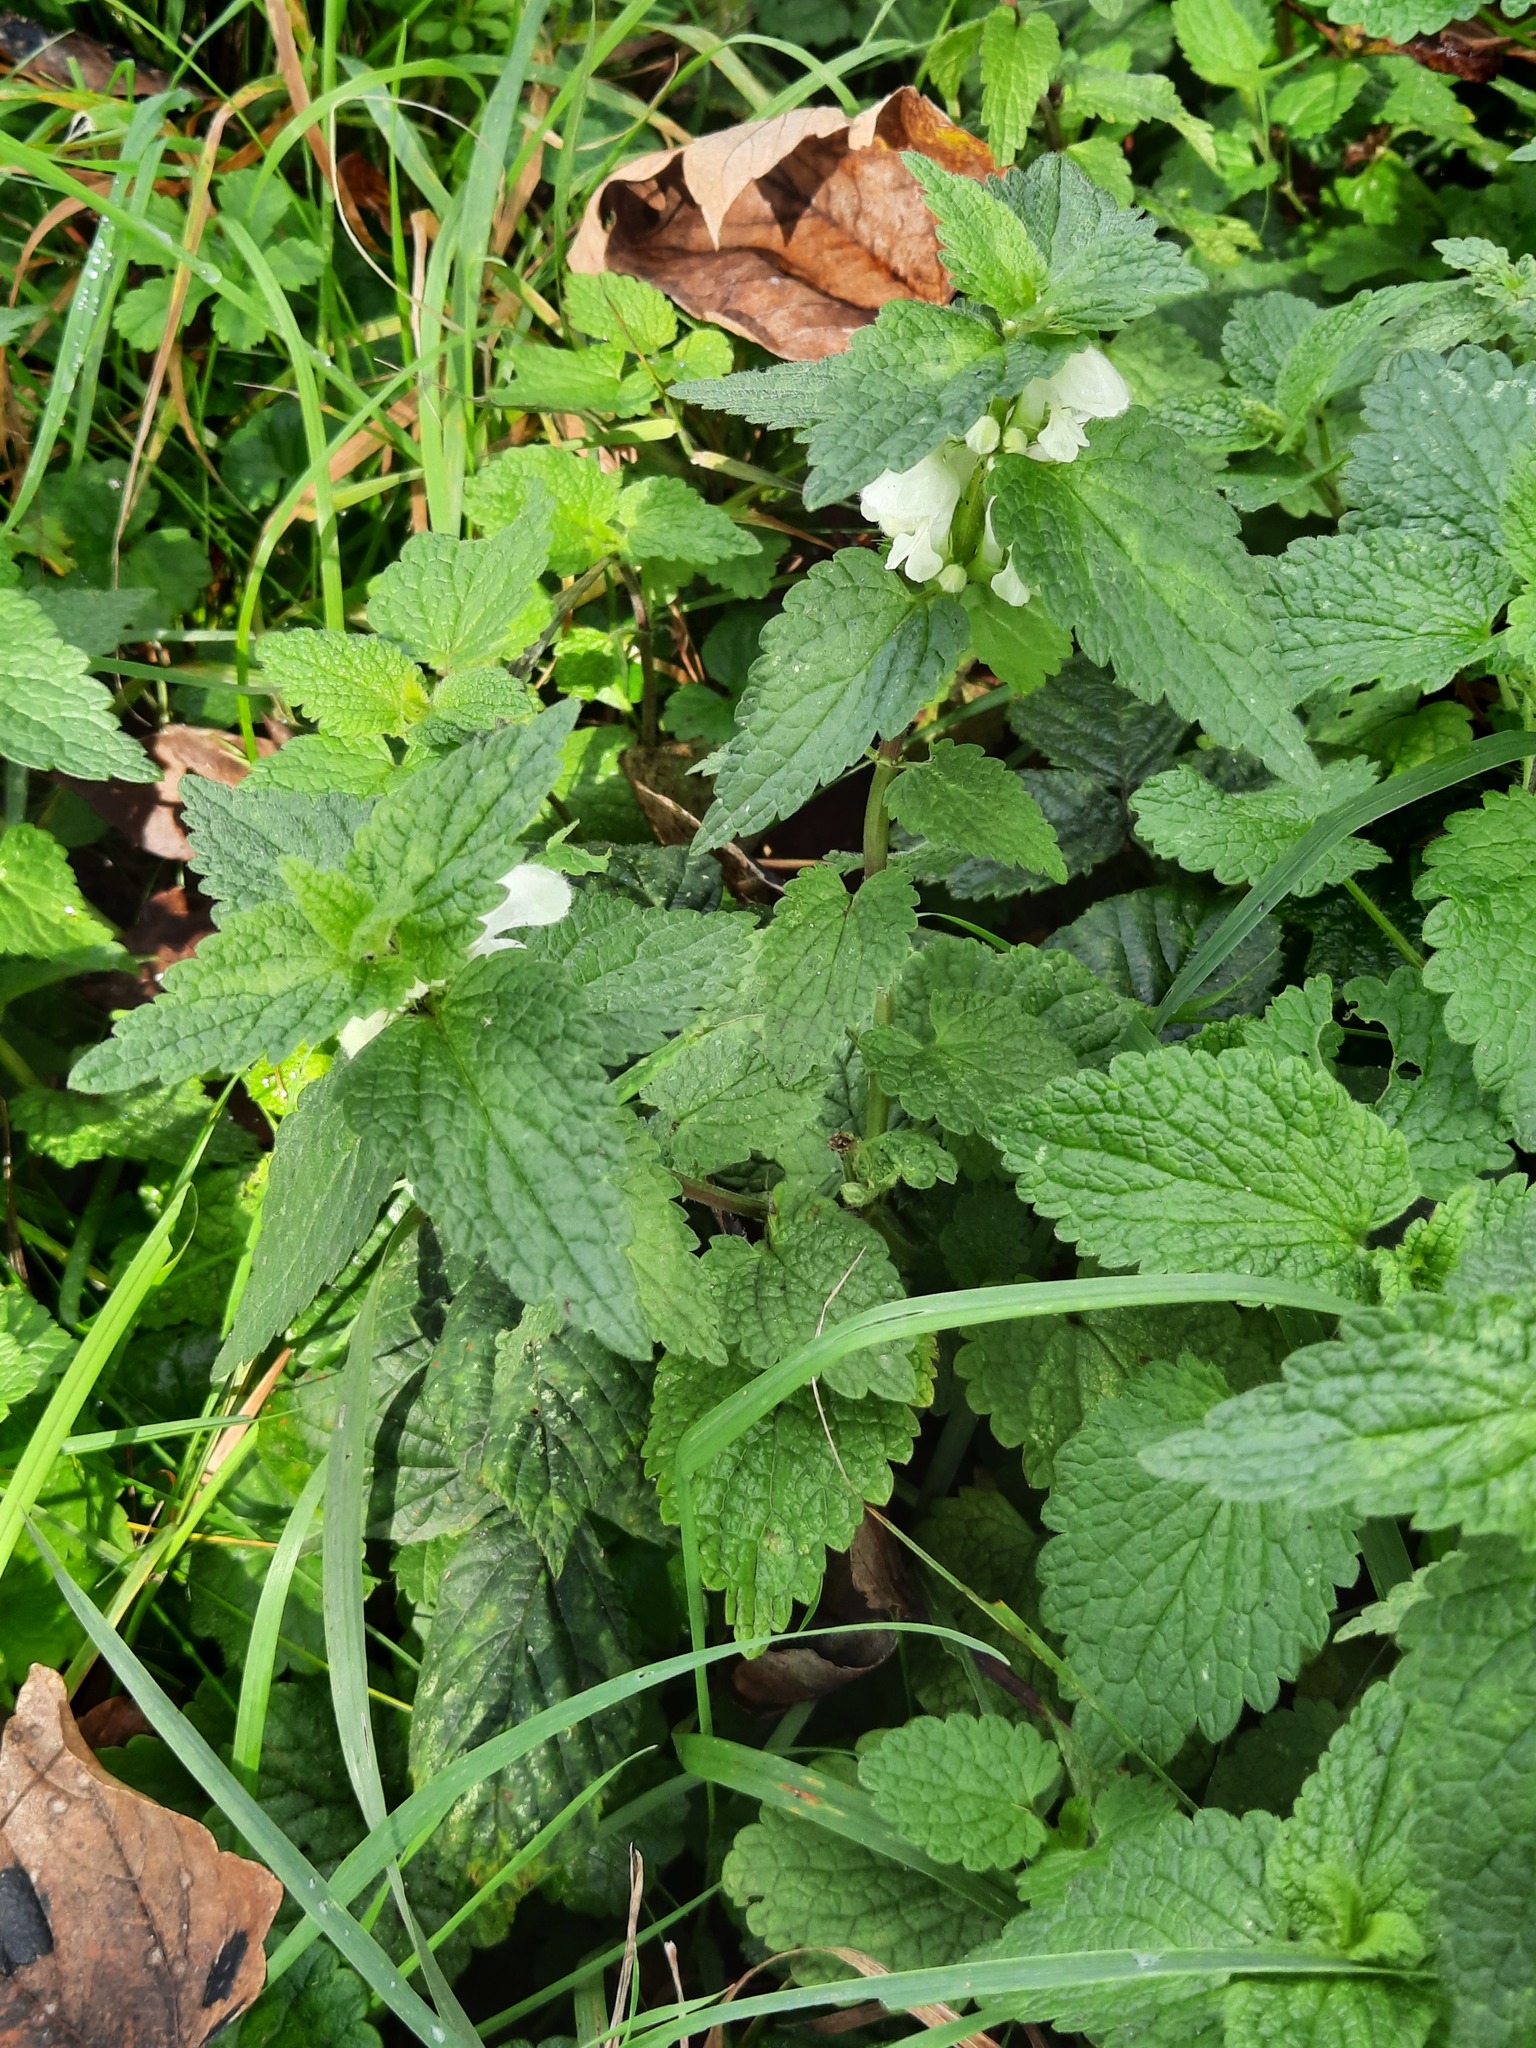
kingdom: Plantae
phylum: Tracheophyta
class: Magnoliopsida
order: Lamiales
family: Lamiaceae
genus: Lamium
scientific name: Lamium album
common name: White dead-nettle
